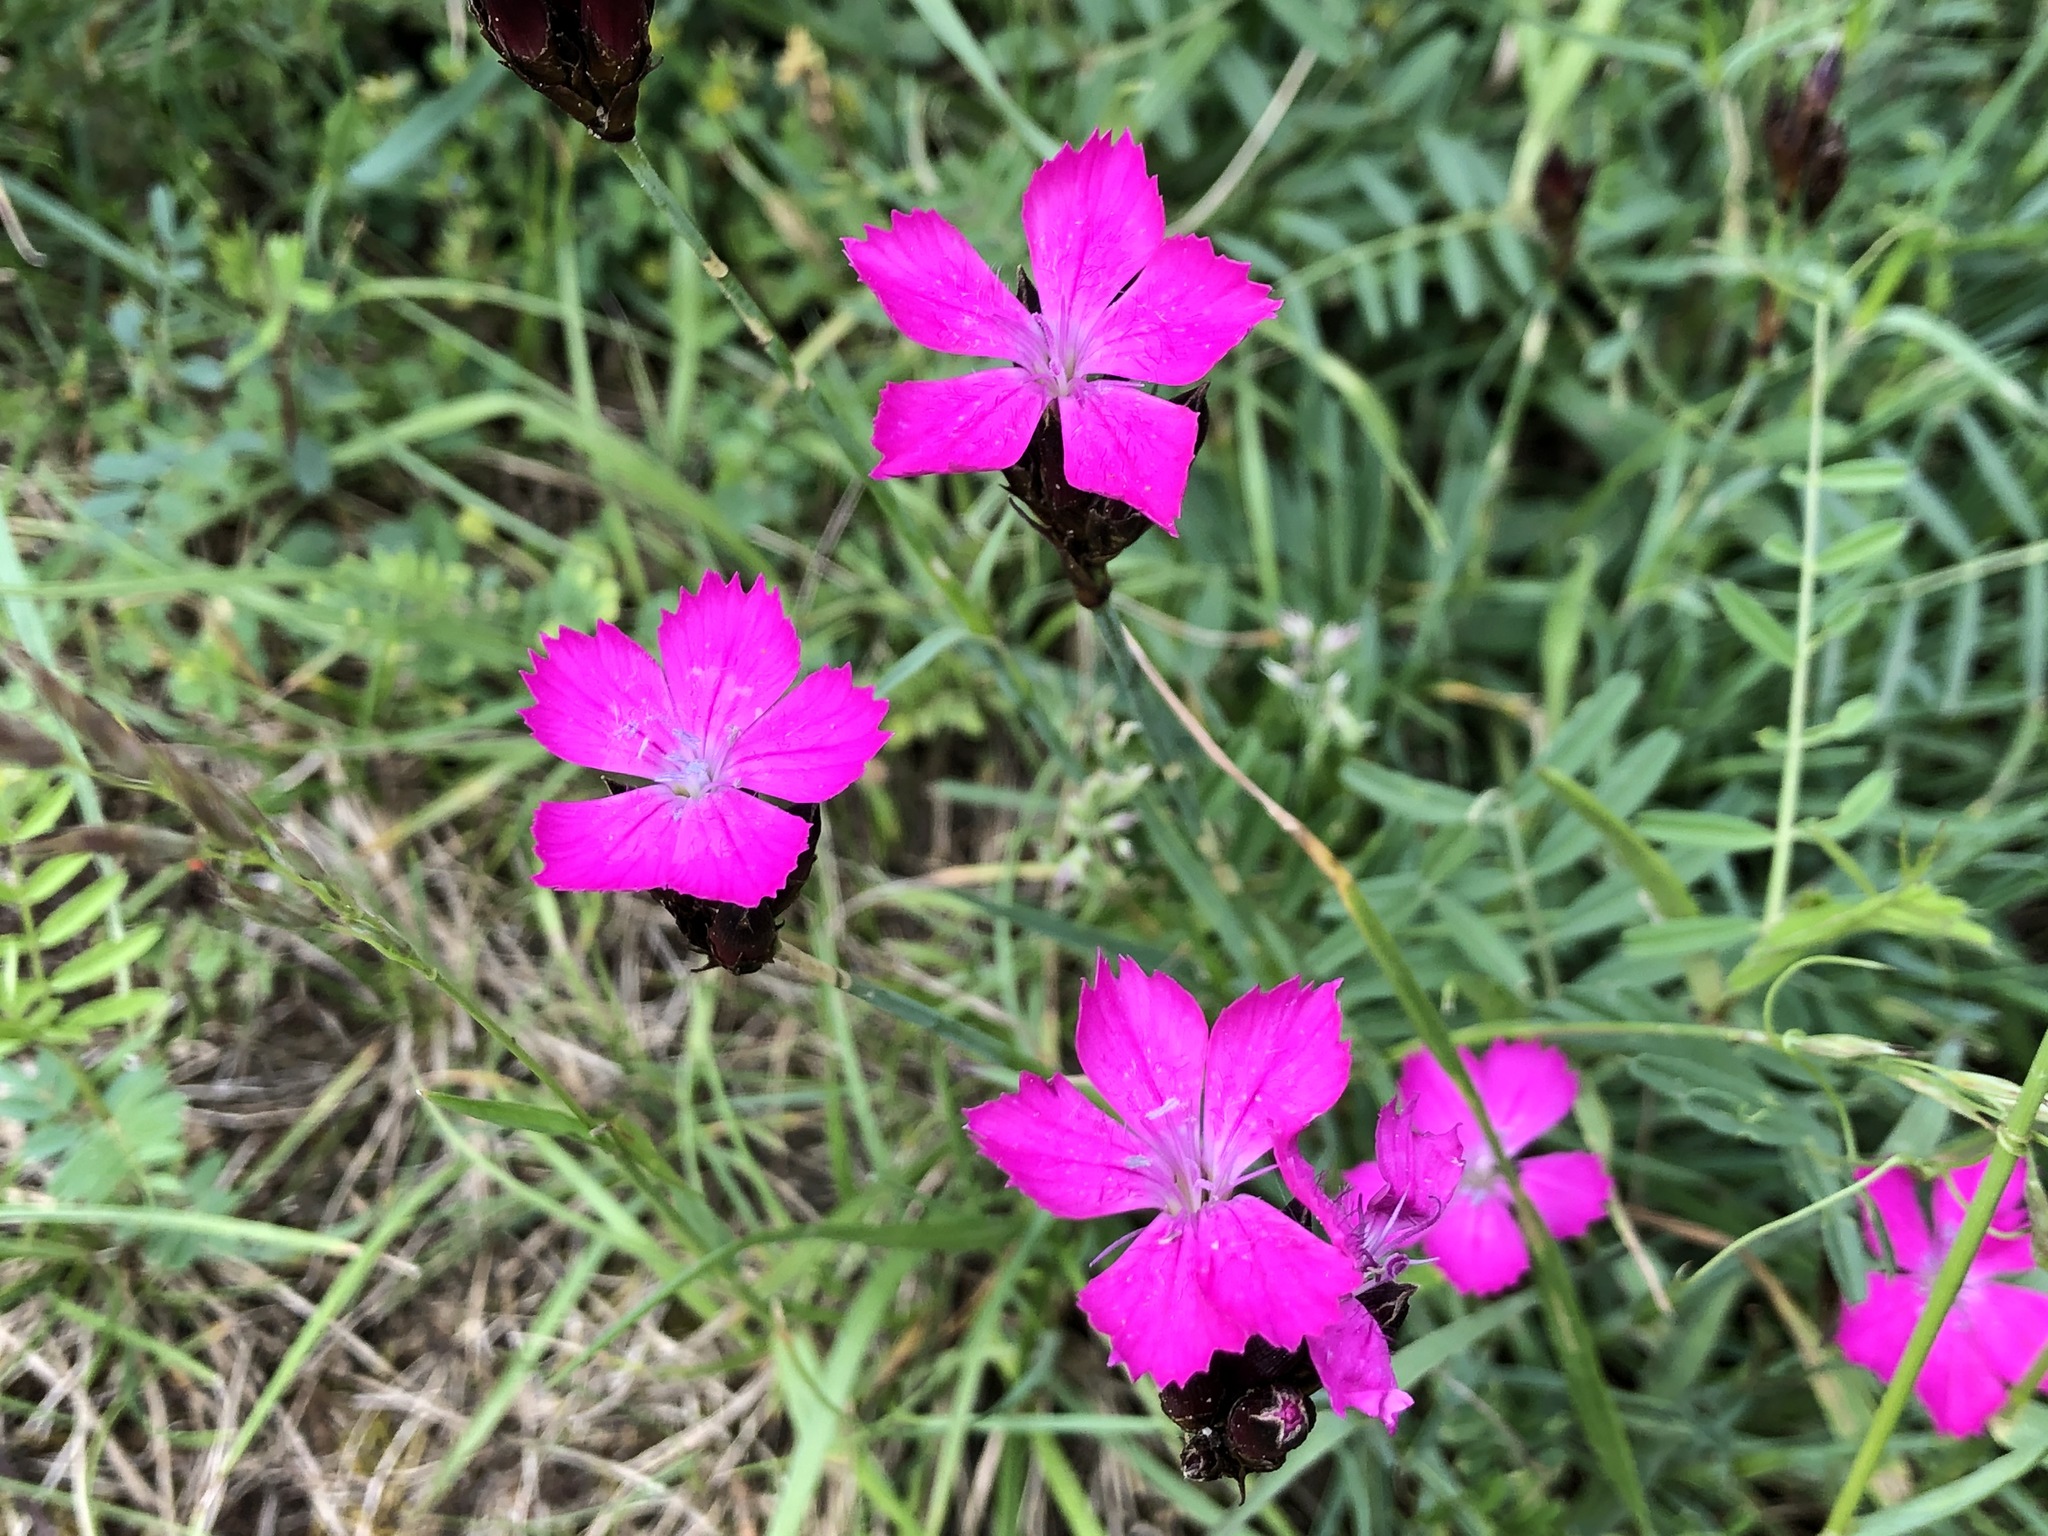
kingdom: Plantae
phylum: Tracheophyta
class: Magnoliopsida
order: Caryophyllales
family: Caryophyllaceae
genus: Dianthus
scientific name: Dianthus carthusianorum
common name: Carthusian pink
